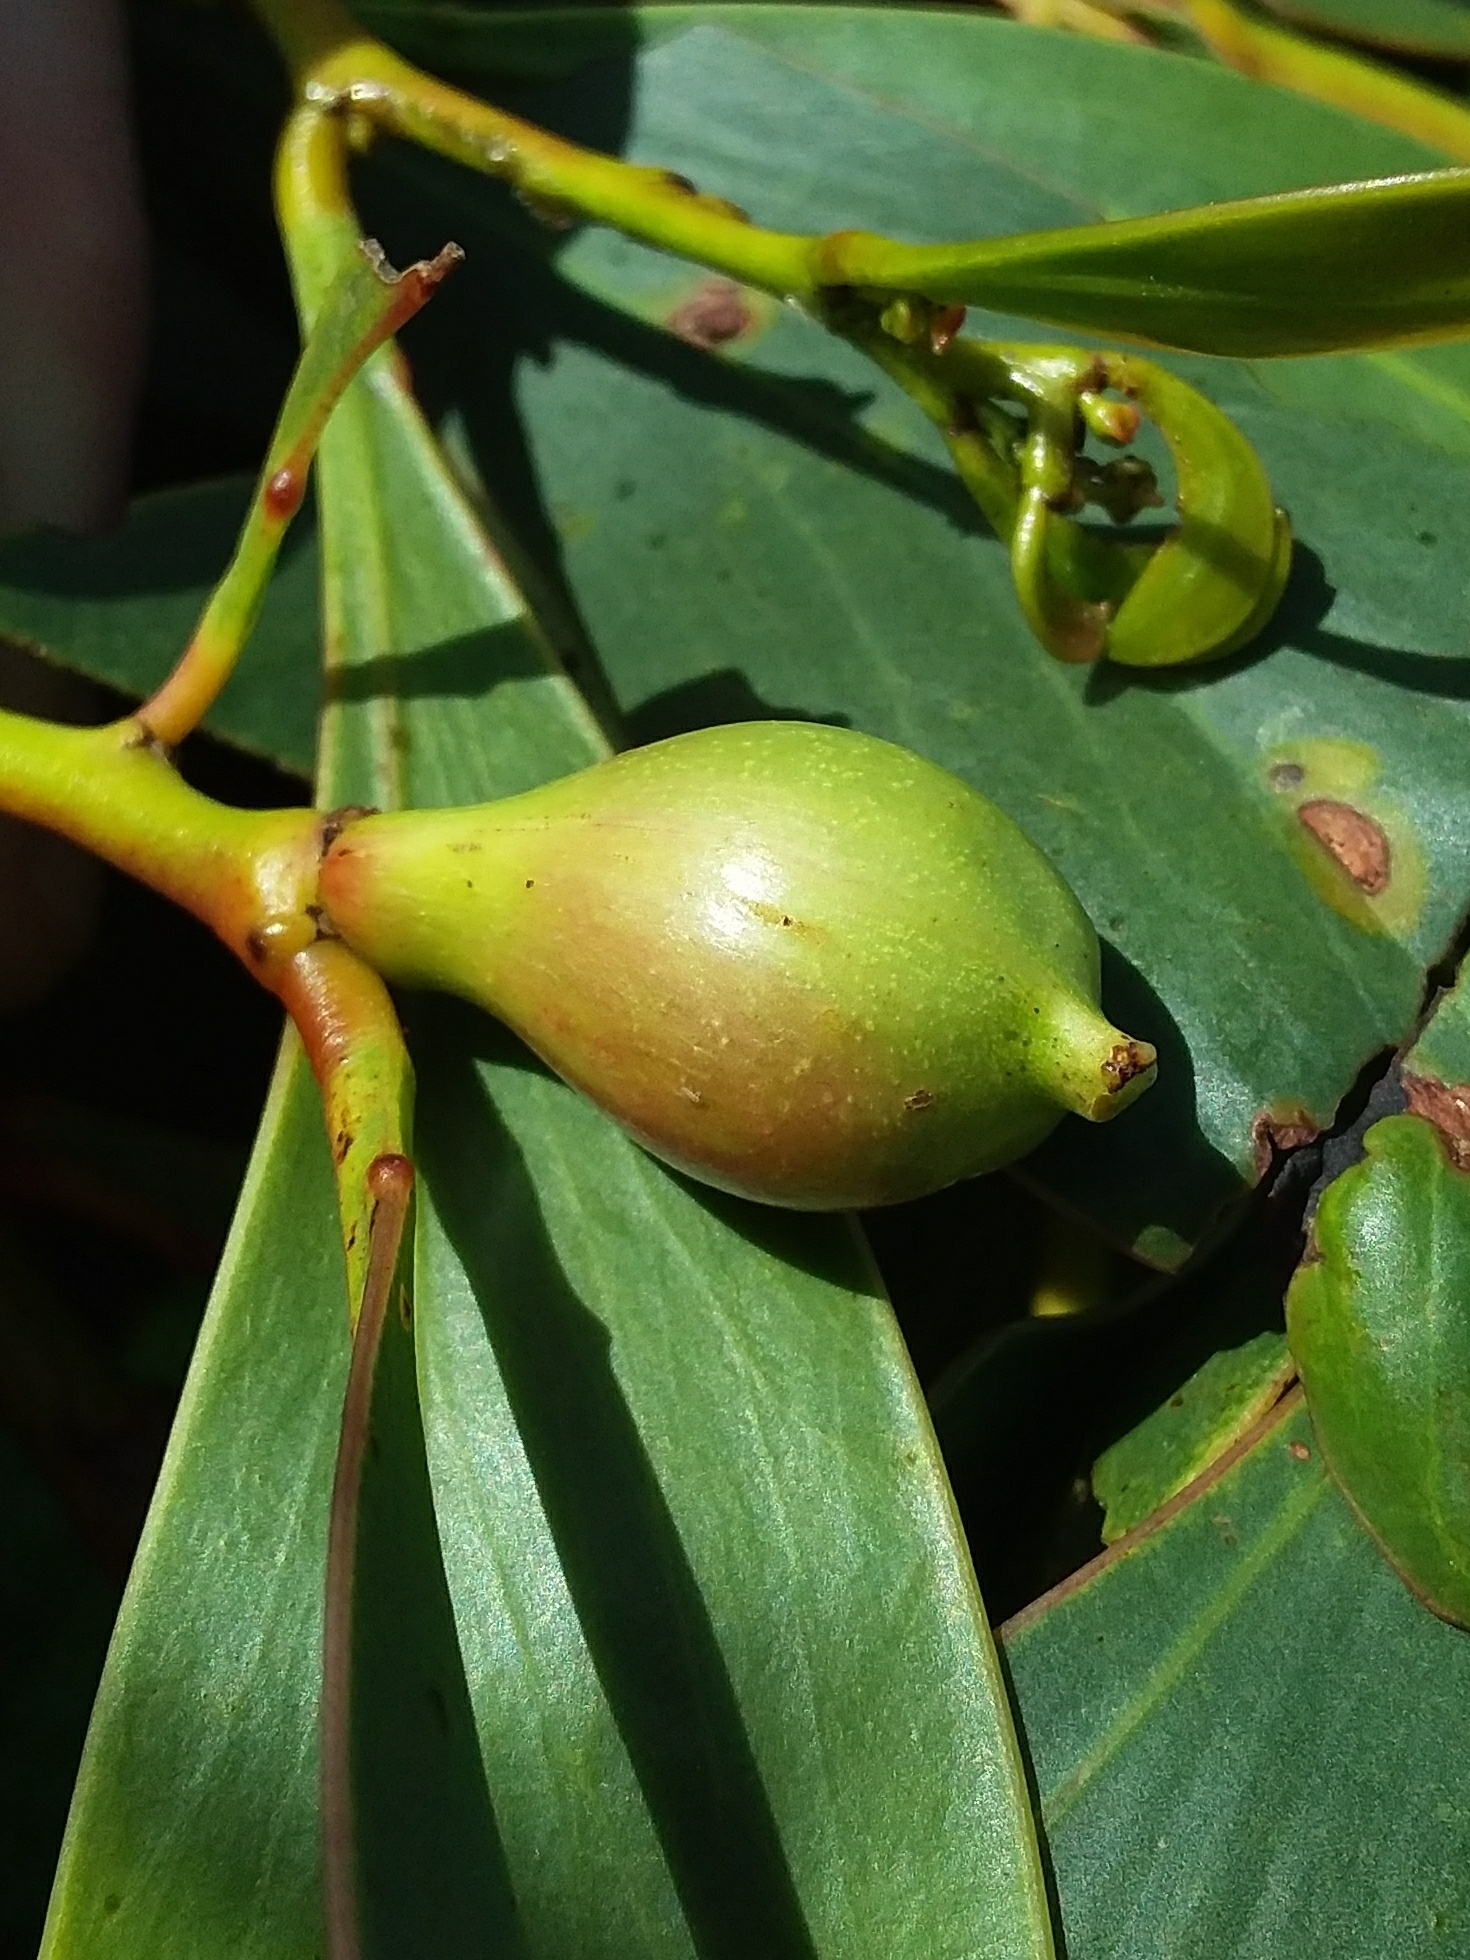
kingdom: Animalia
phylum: Arthropoda
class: Insecta
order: Hymenoptera
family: Pteromalidae
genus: Trichilogaster
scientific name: Trichilogaster signiventris
